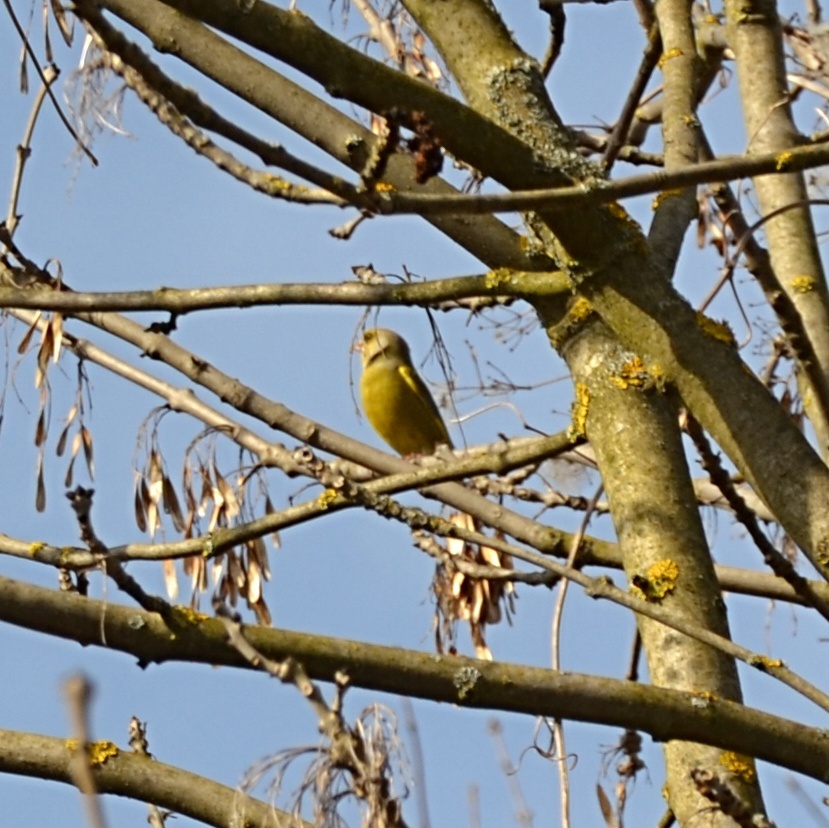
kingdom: Plantae
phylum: Tracheophyta
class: Liliopsida
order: Poales
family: Poaceae
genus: Chloris
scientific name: Chloris chloris
